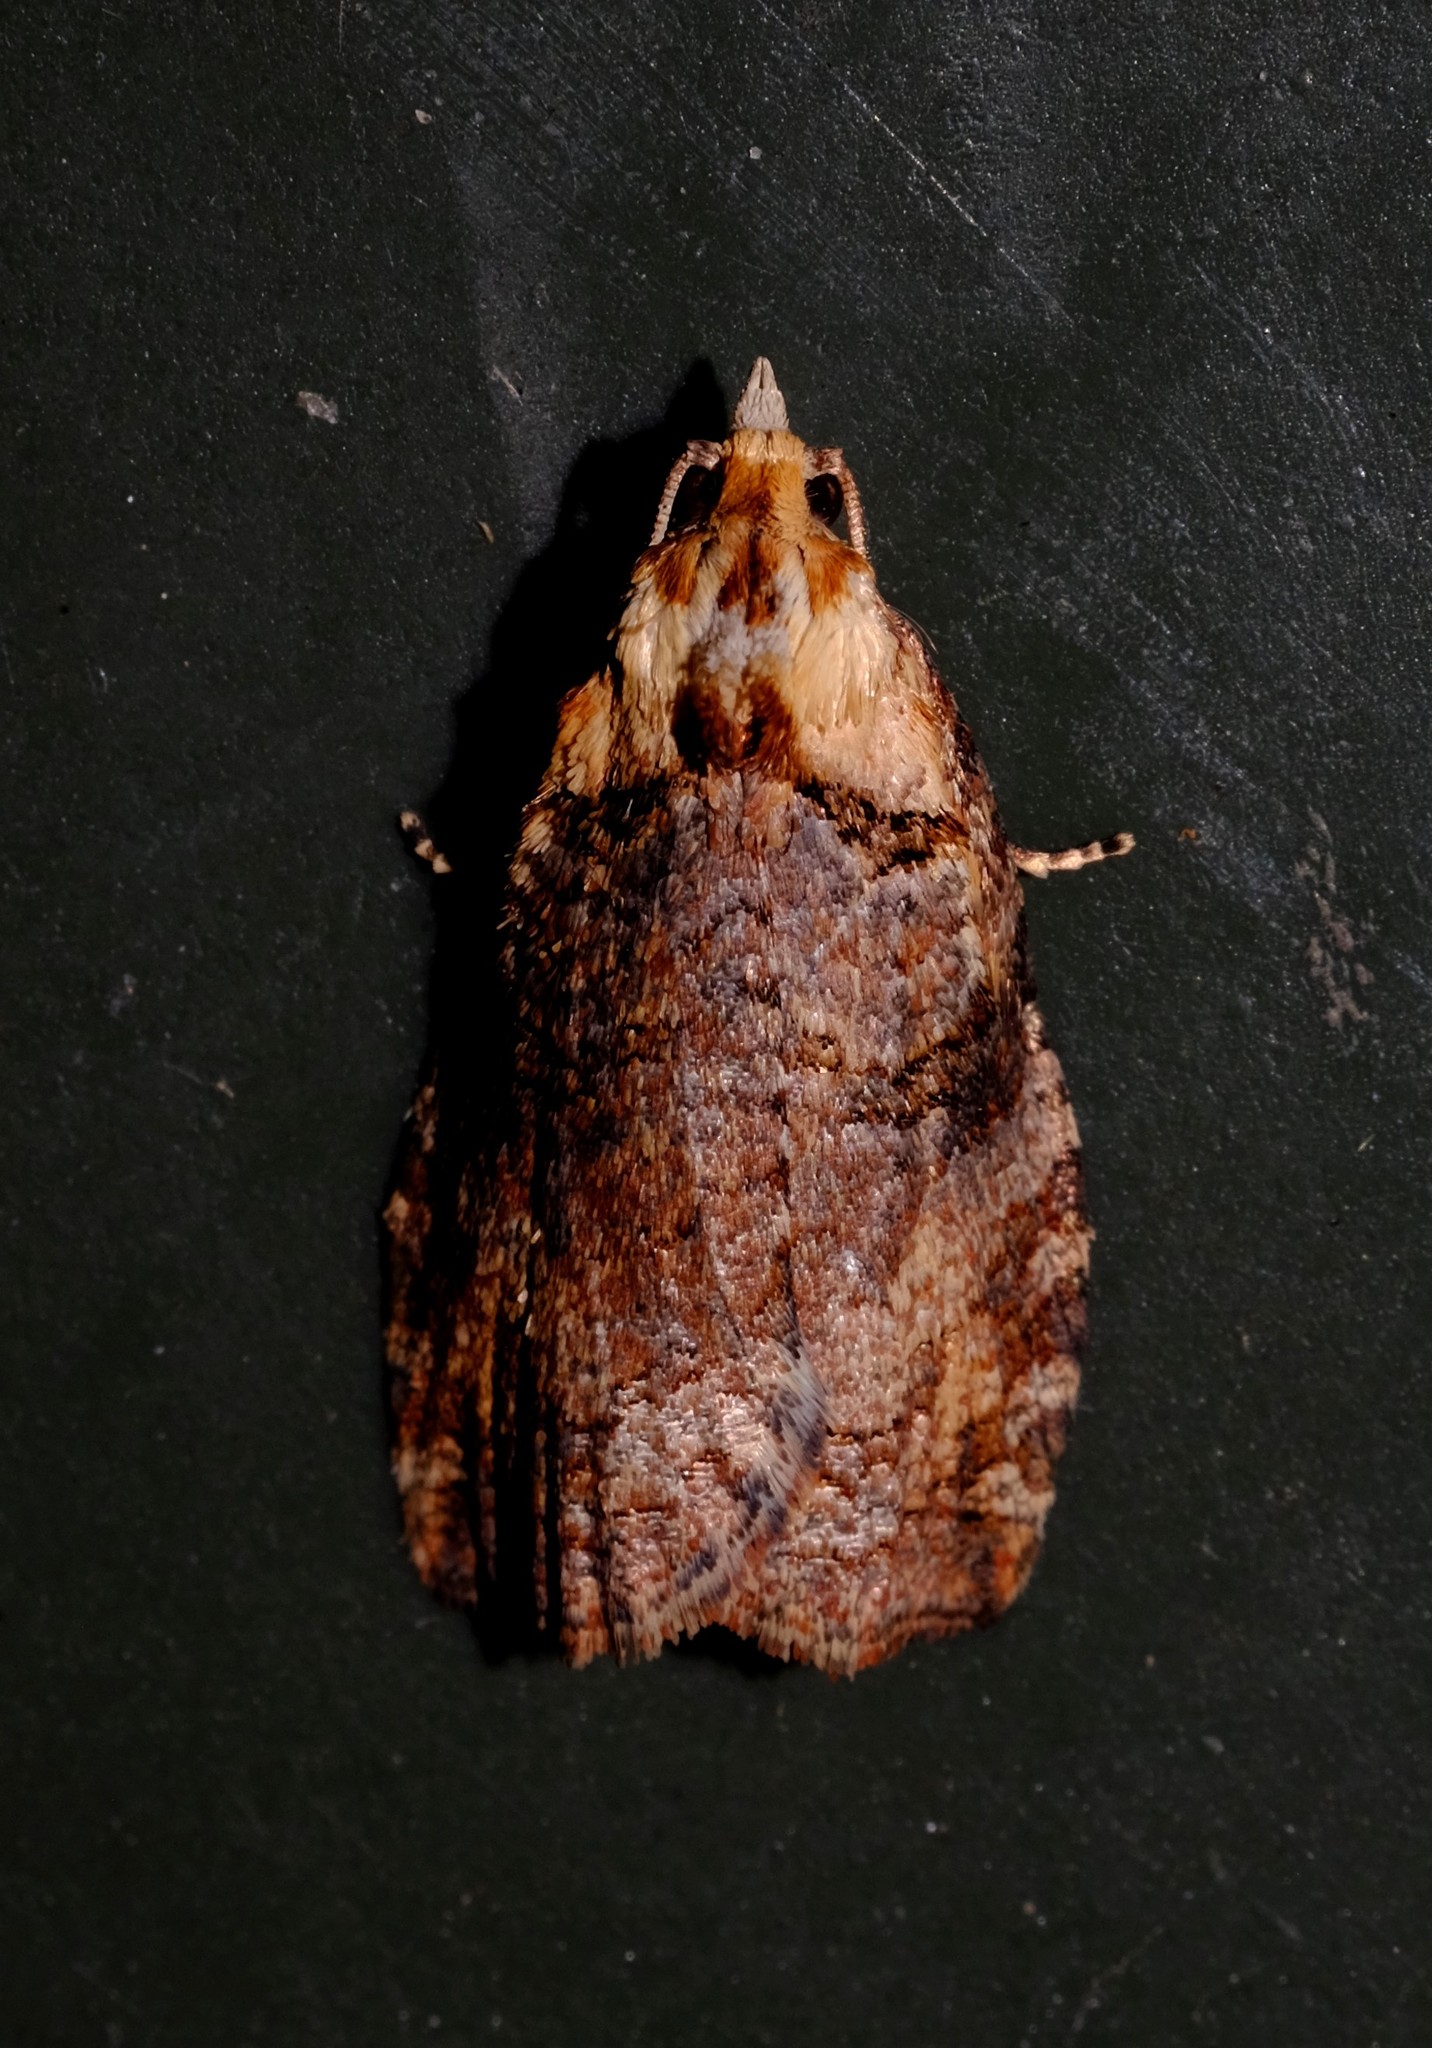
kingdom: Animalia
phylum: Arthropoda
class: Insecta
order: Lepidoptera
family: Tortricidae
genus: Cryptoptila
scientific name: Cryptoptila australana
